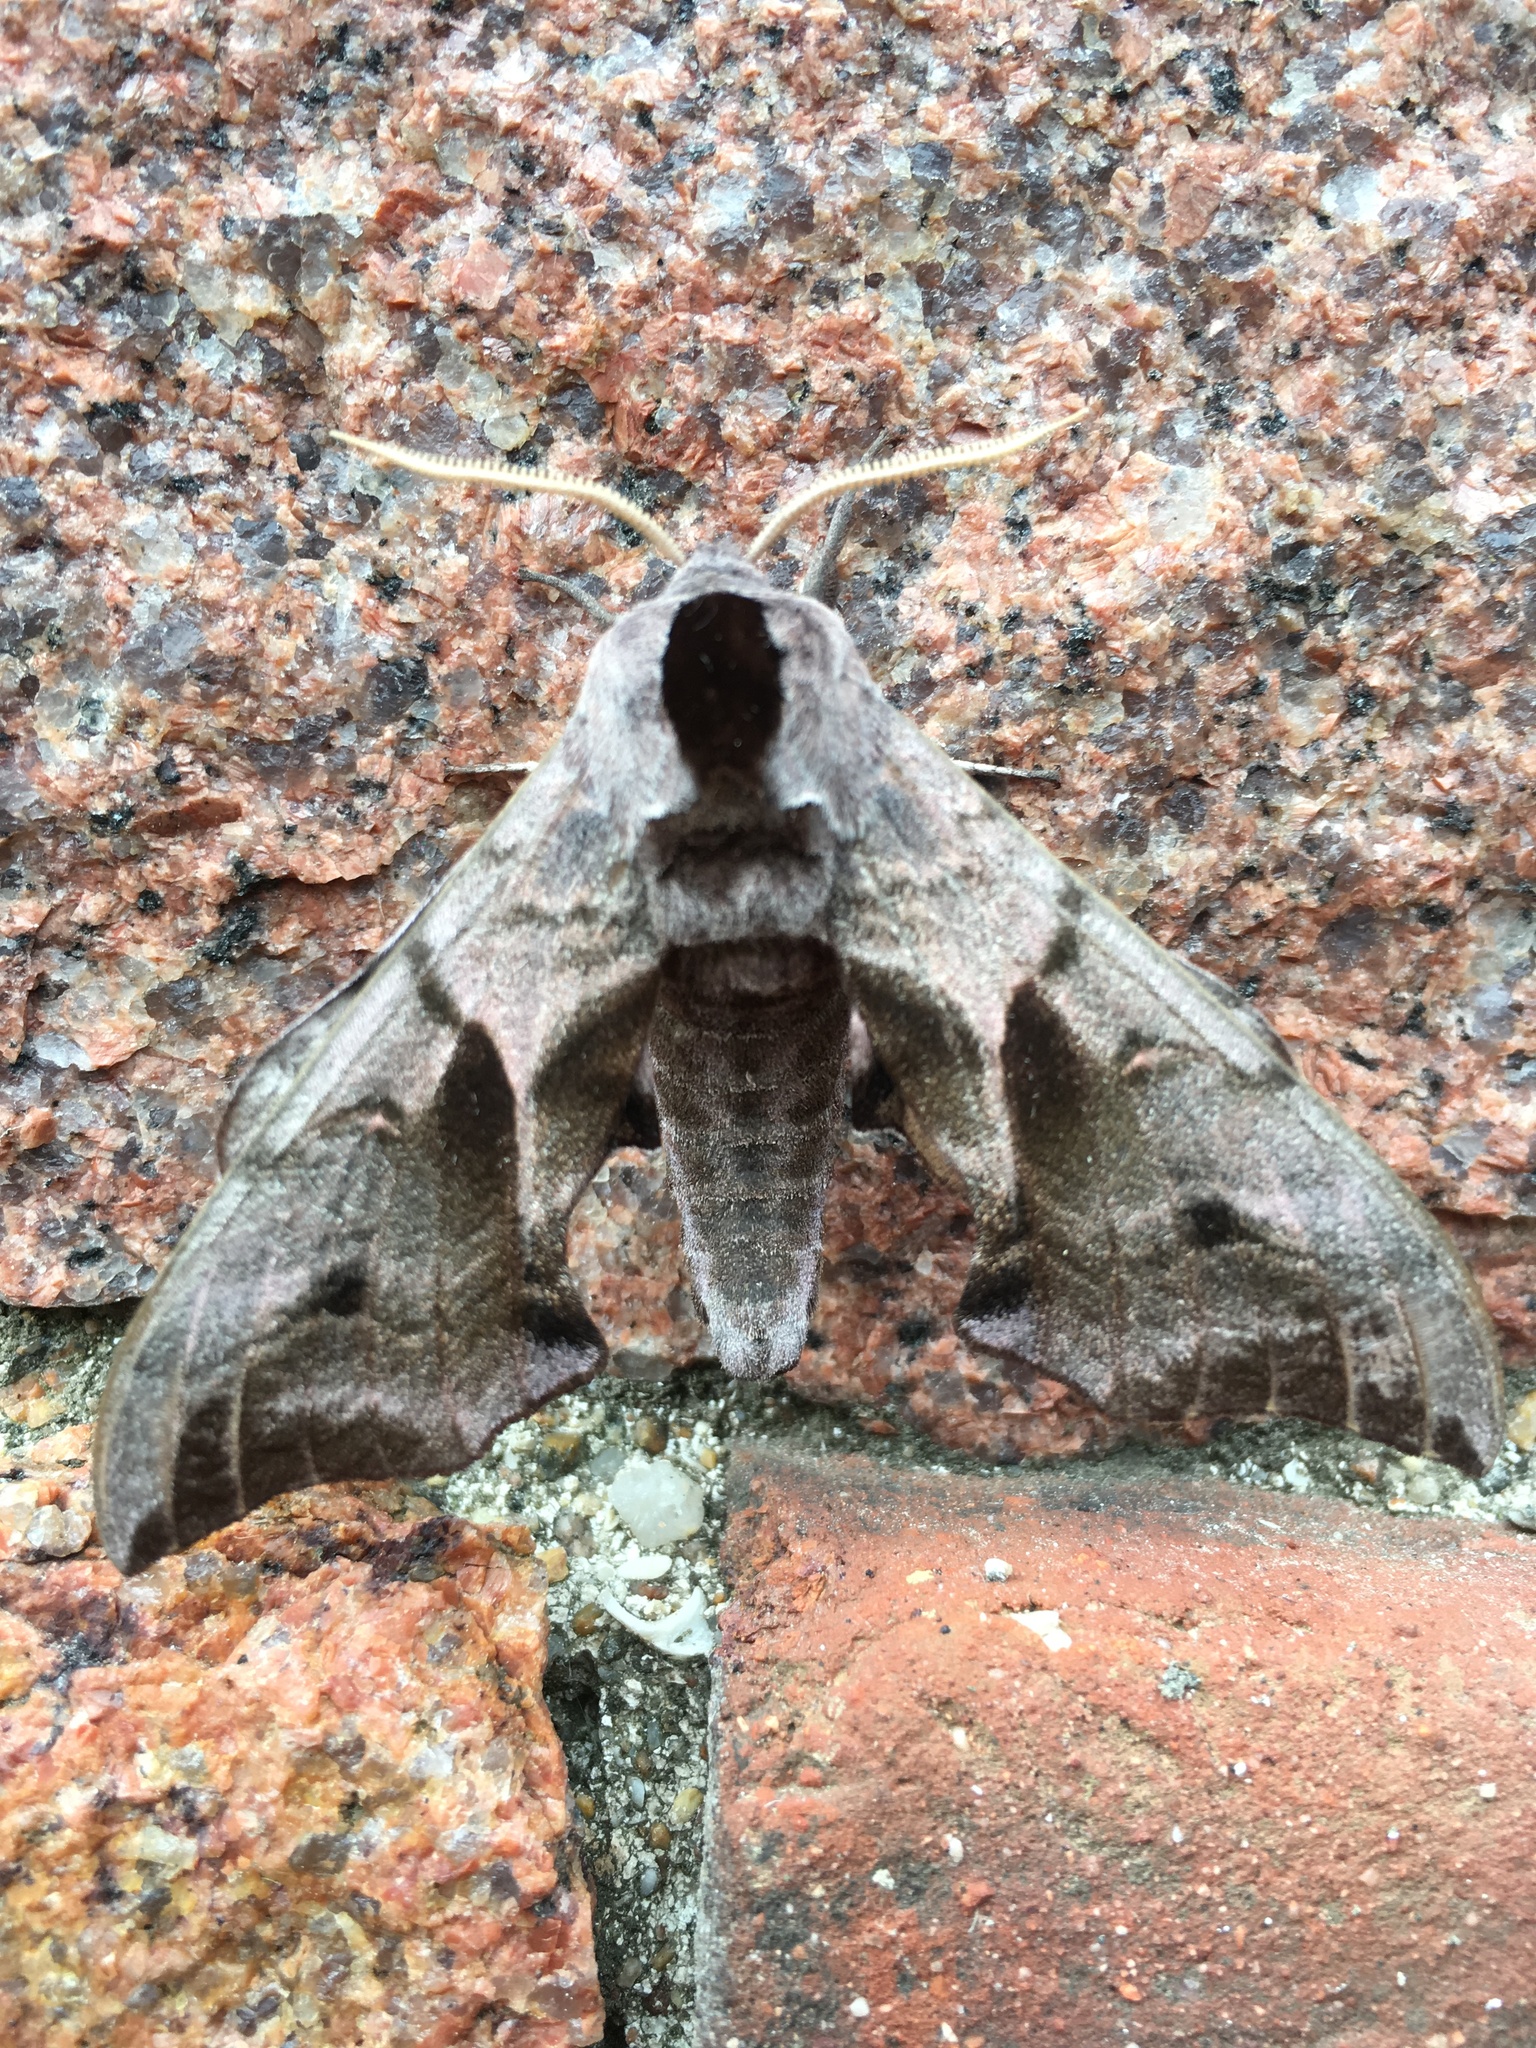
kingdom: Animalia
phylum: Arthropoda
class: Insecta
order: Lepidoptera
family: Sphingidae
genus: Smerinthus
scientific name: Smerinthus ocellata
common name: Eyed hawk-moth
